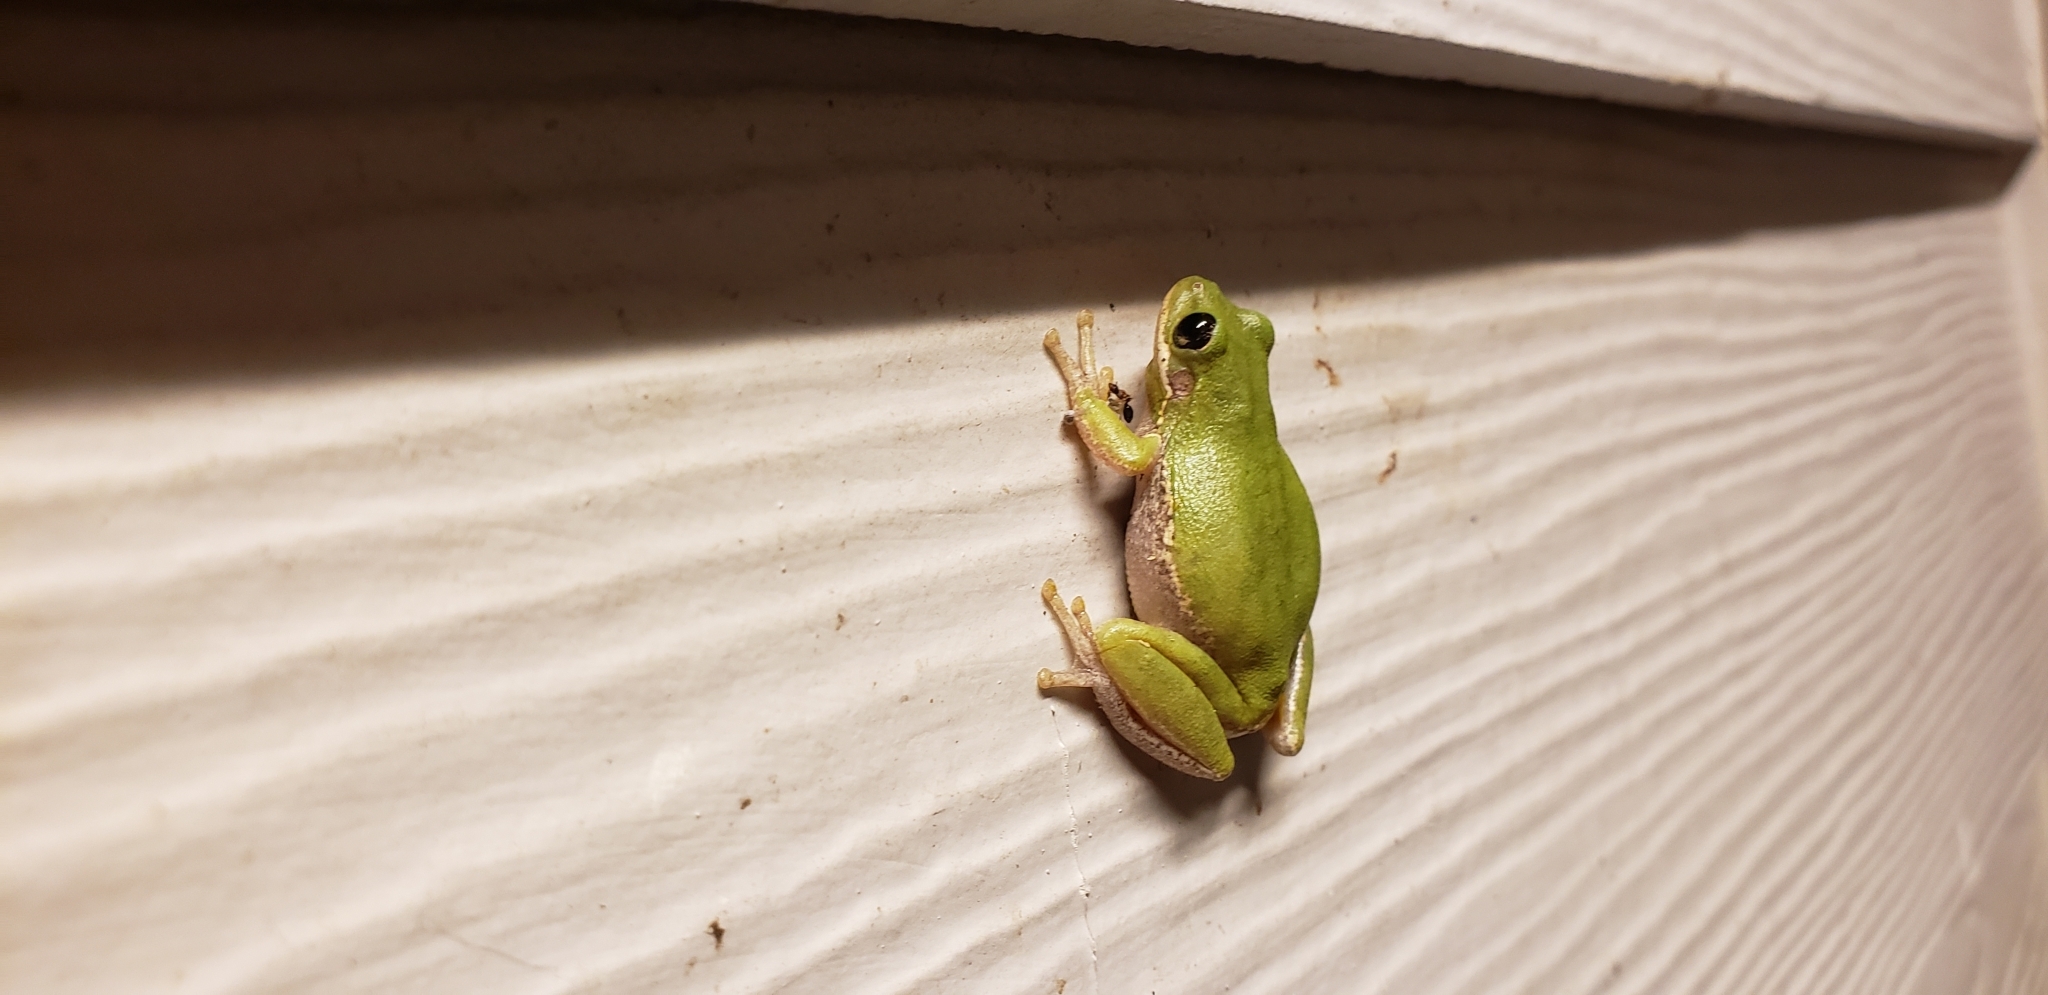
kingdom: Animalia
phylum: Chordata
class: Amphibia
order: Anura
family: Hylidae
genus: Dryophytes
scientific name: Dryophytes squirellus
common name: Squirrel treefrog
